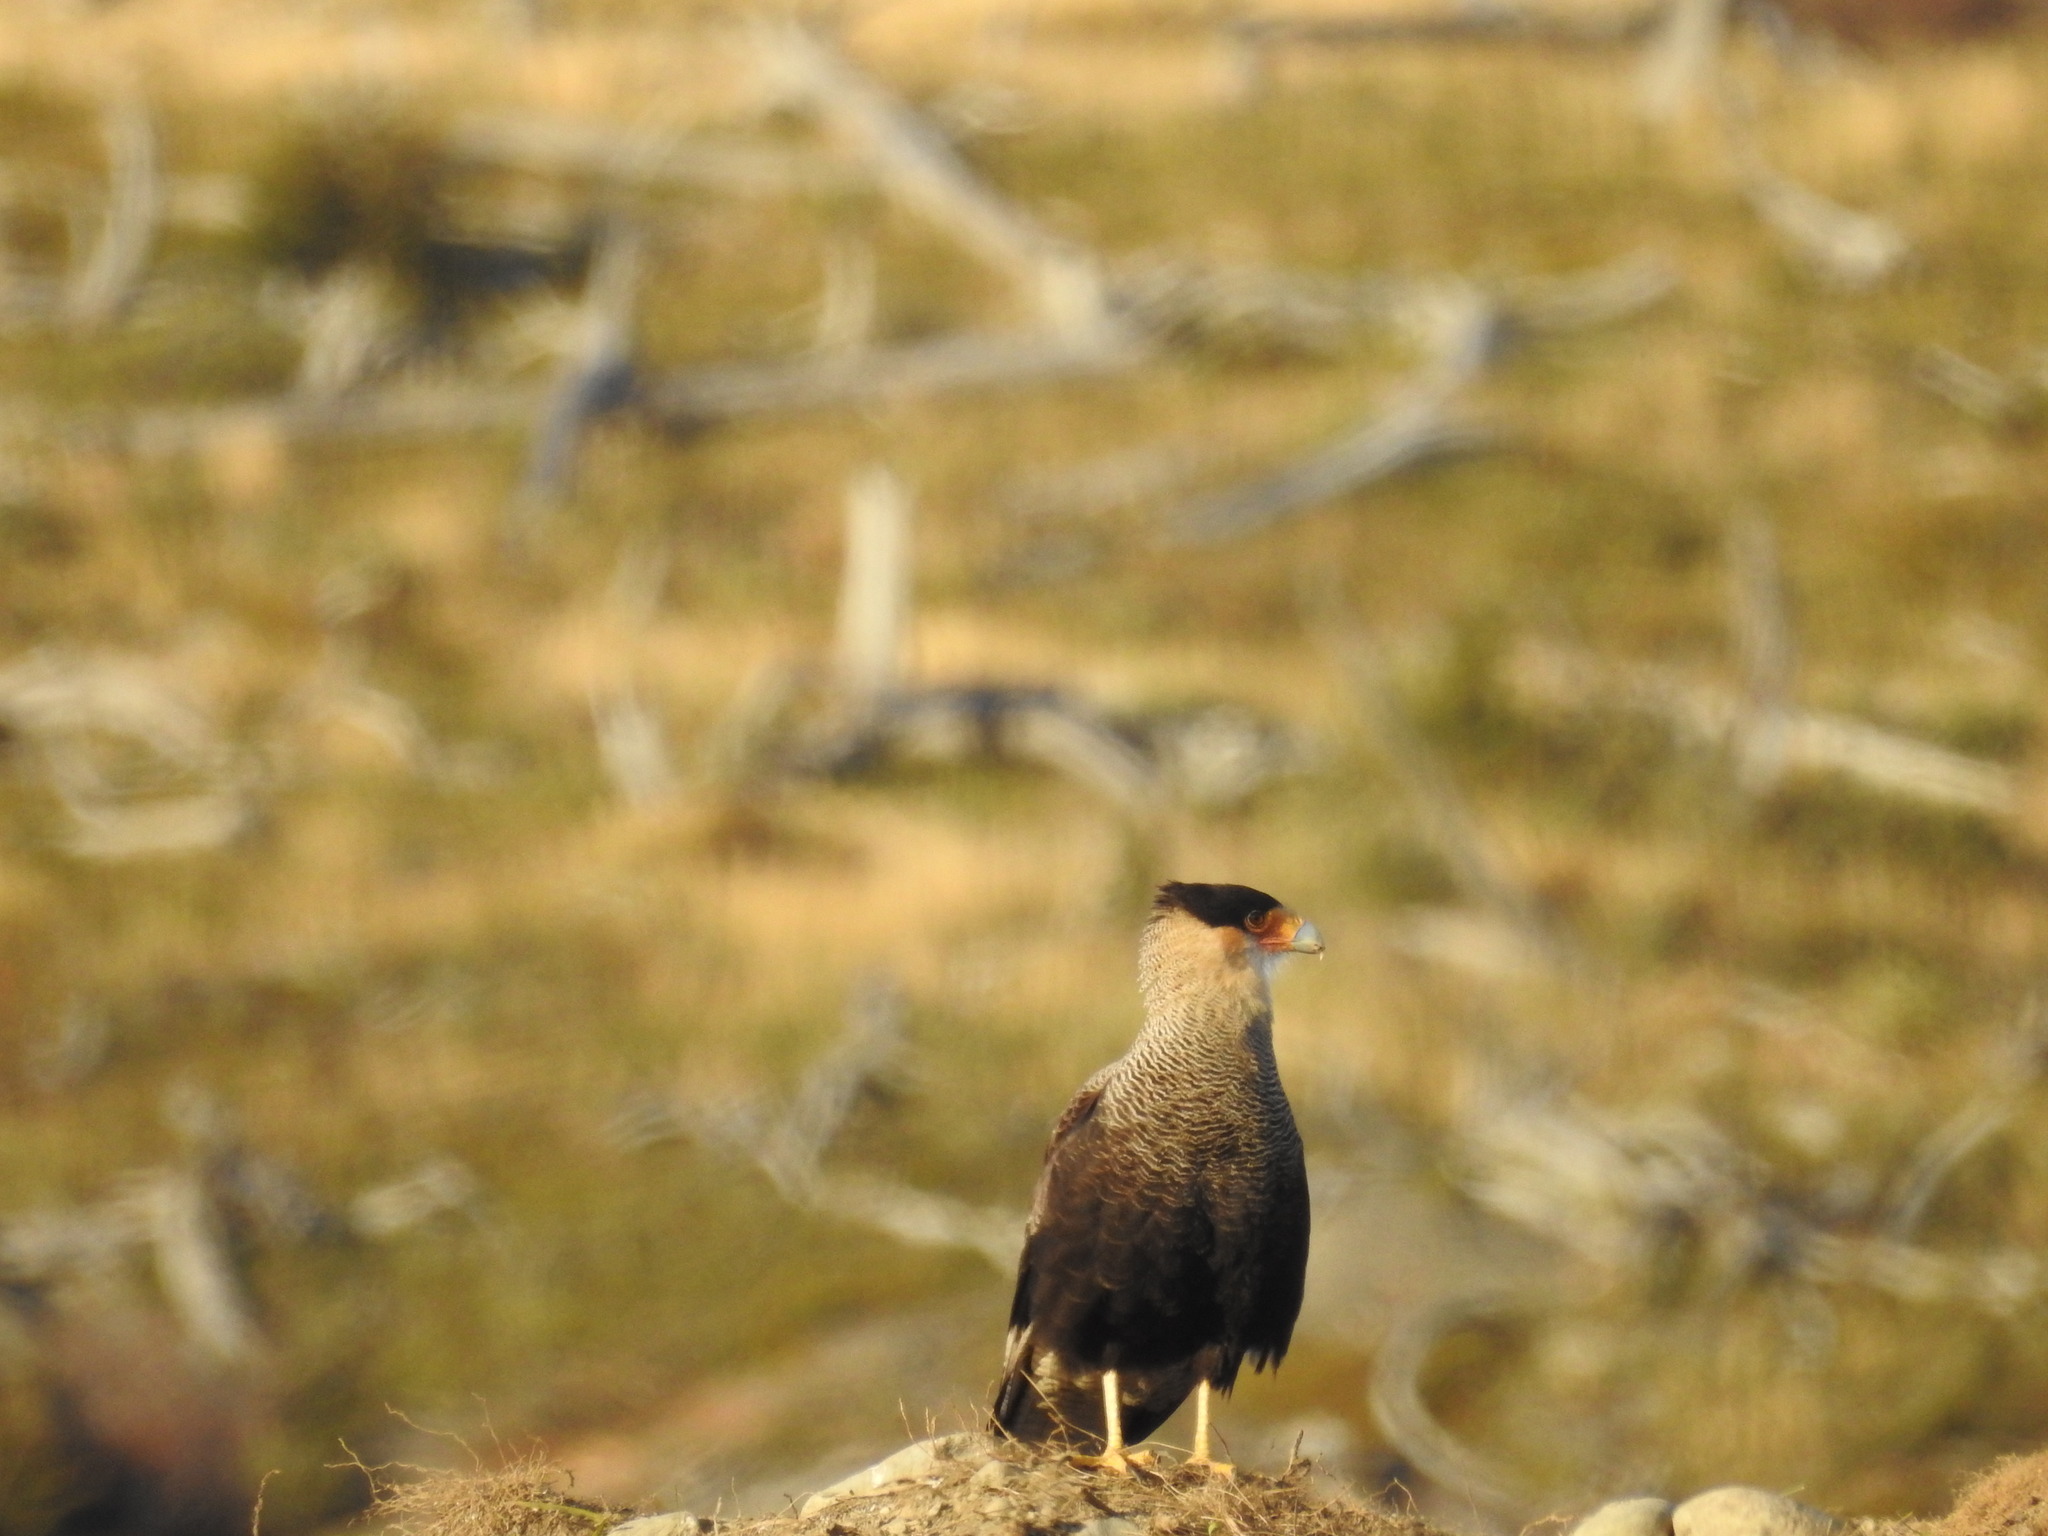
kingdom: Animalia
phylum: Chordata
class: Aves
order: Falconiformes
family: Falconidae
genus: Caracara
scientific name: Caracara plancus
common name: Southern caracara
